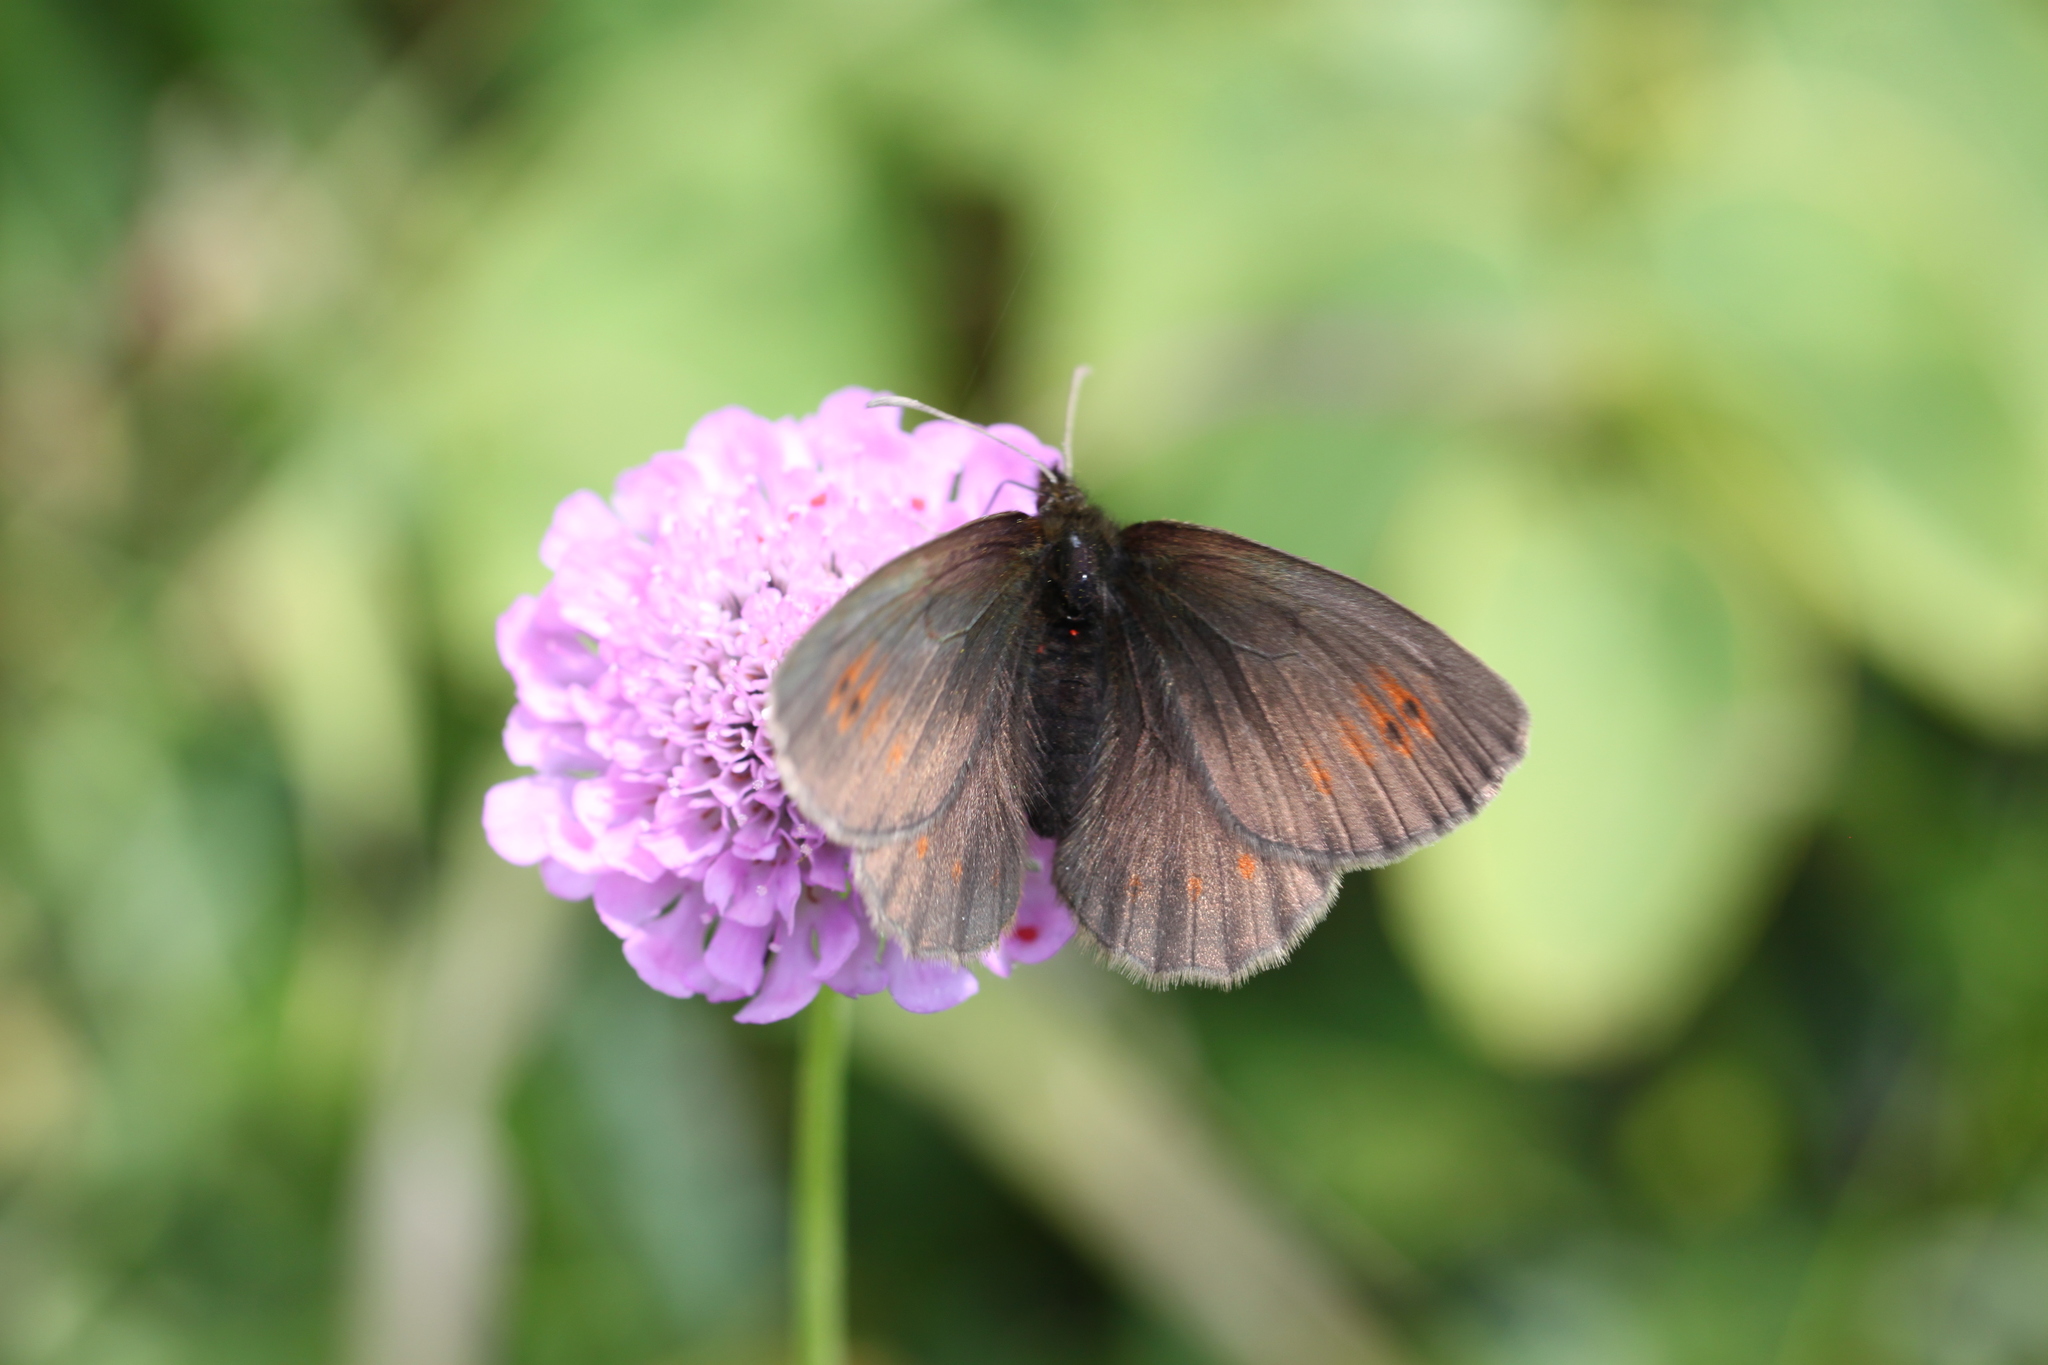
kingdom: Animalia
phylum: Arthropoda
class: Insecta
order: Lepidoptera
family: Nymphalidae
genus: Erebia
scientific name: Erebia manto
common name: Yellow-spotted ringlet
